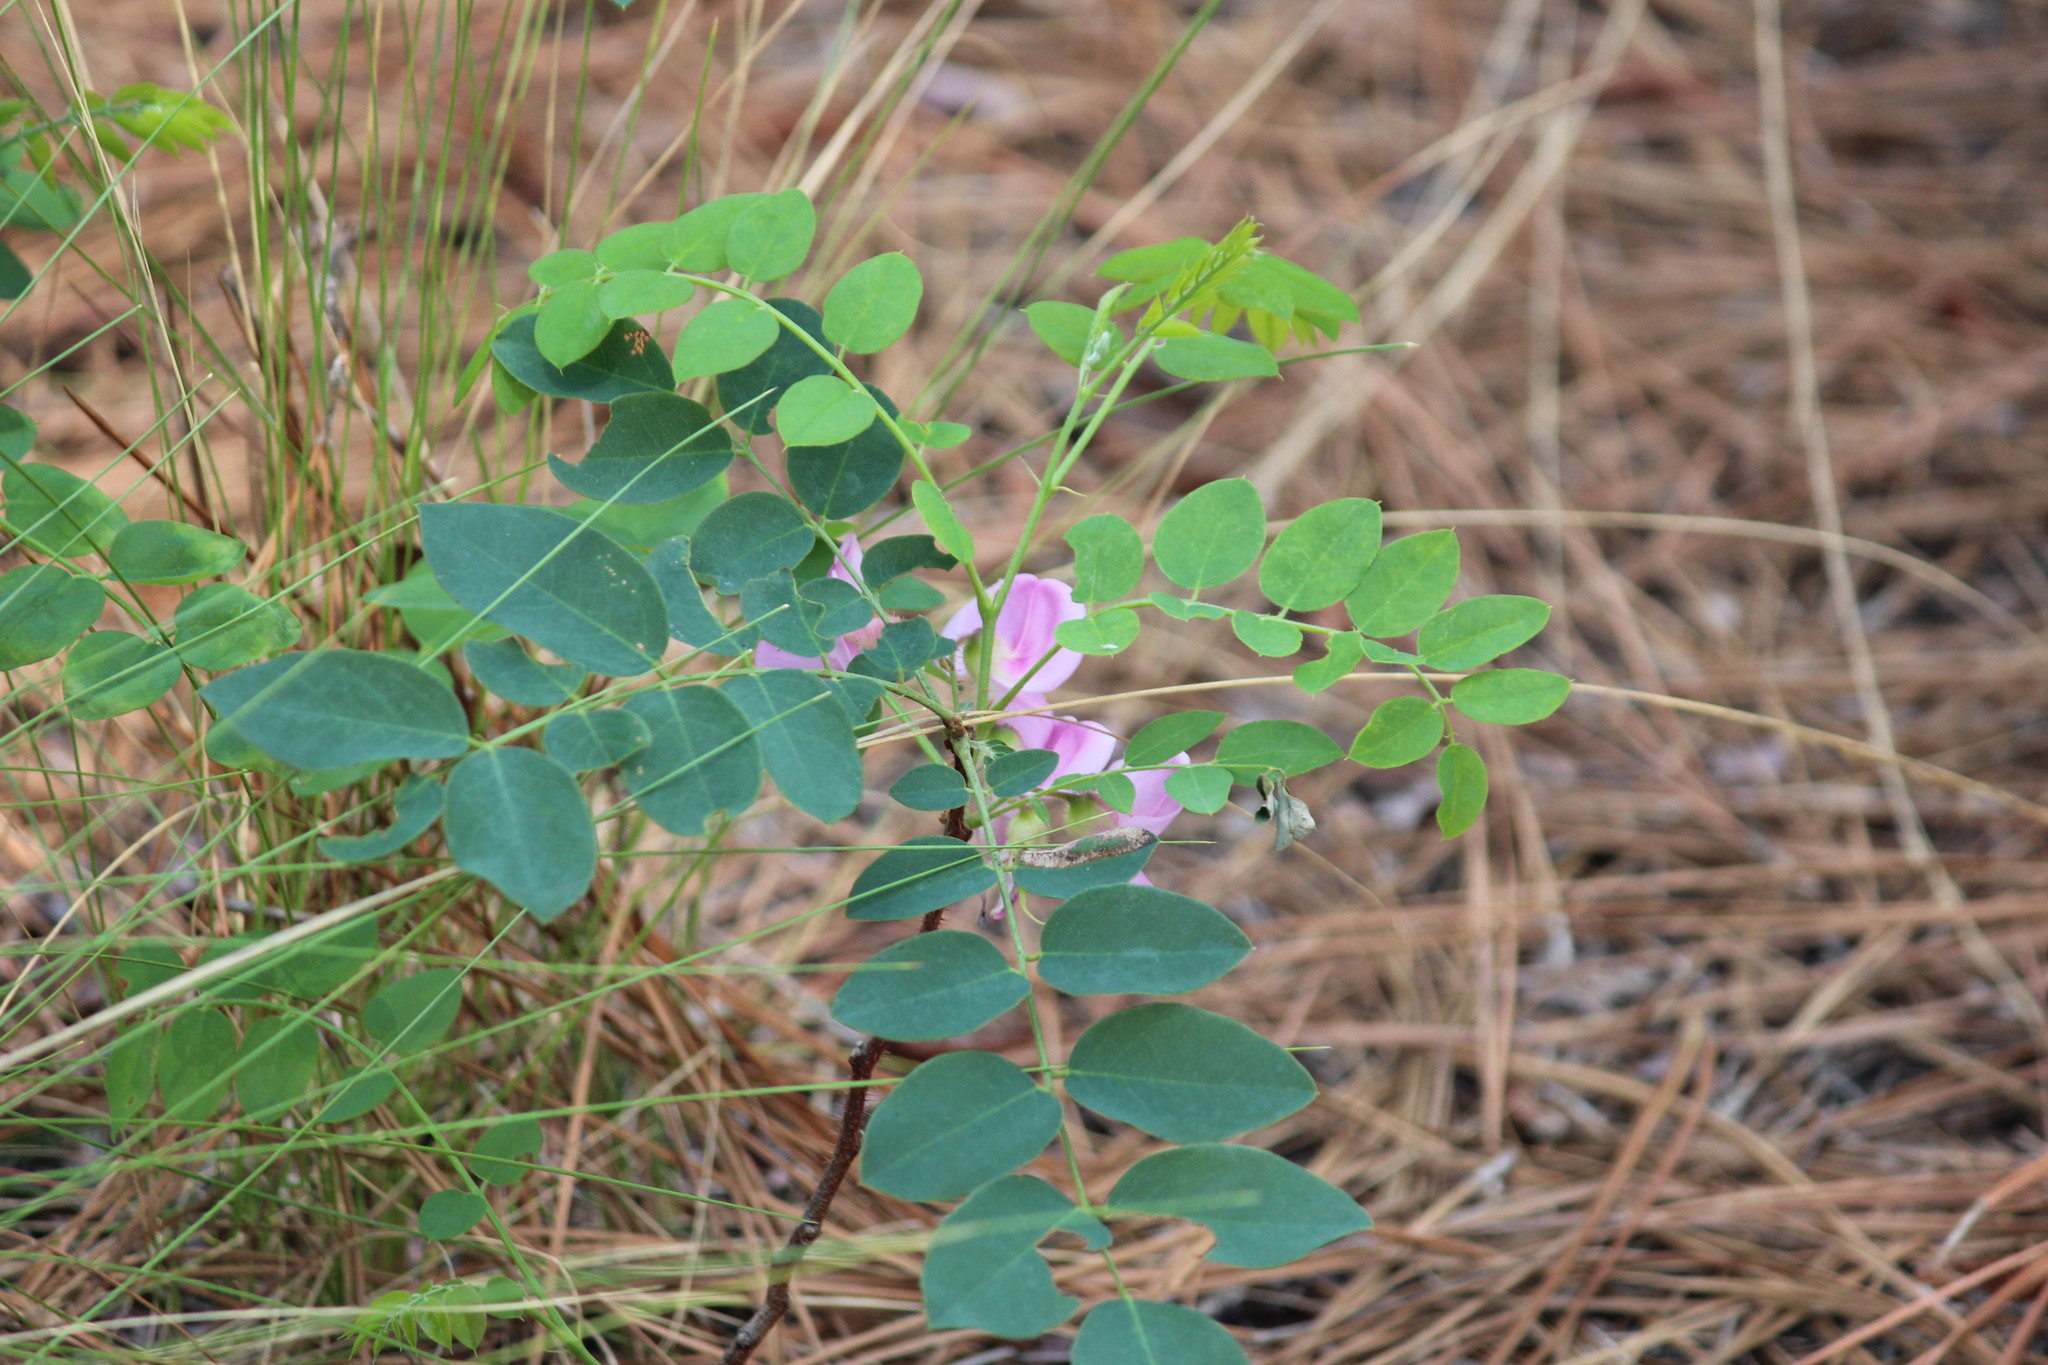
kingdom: Plantae
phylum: Tracheophyta
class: Magnoliopsida
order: Fabales
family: Fabaceae
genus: Robinia
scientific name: Robinia hispida
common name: Bristly locust
